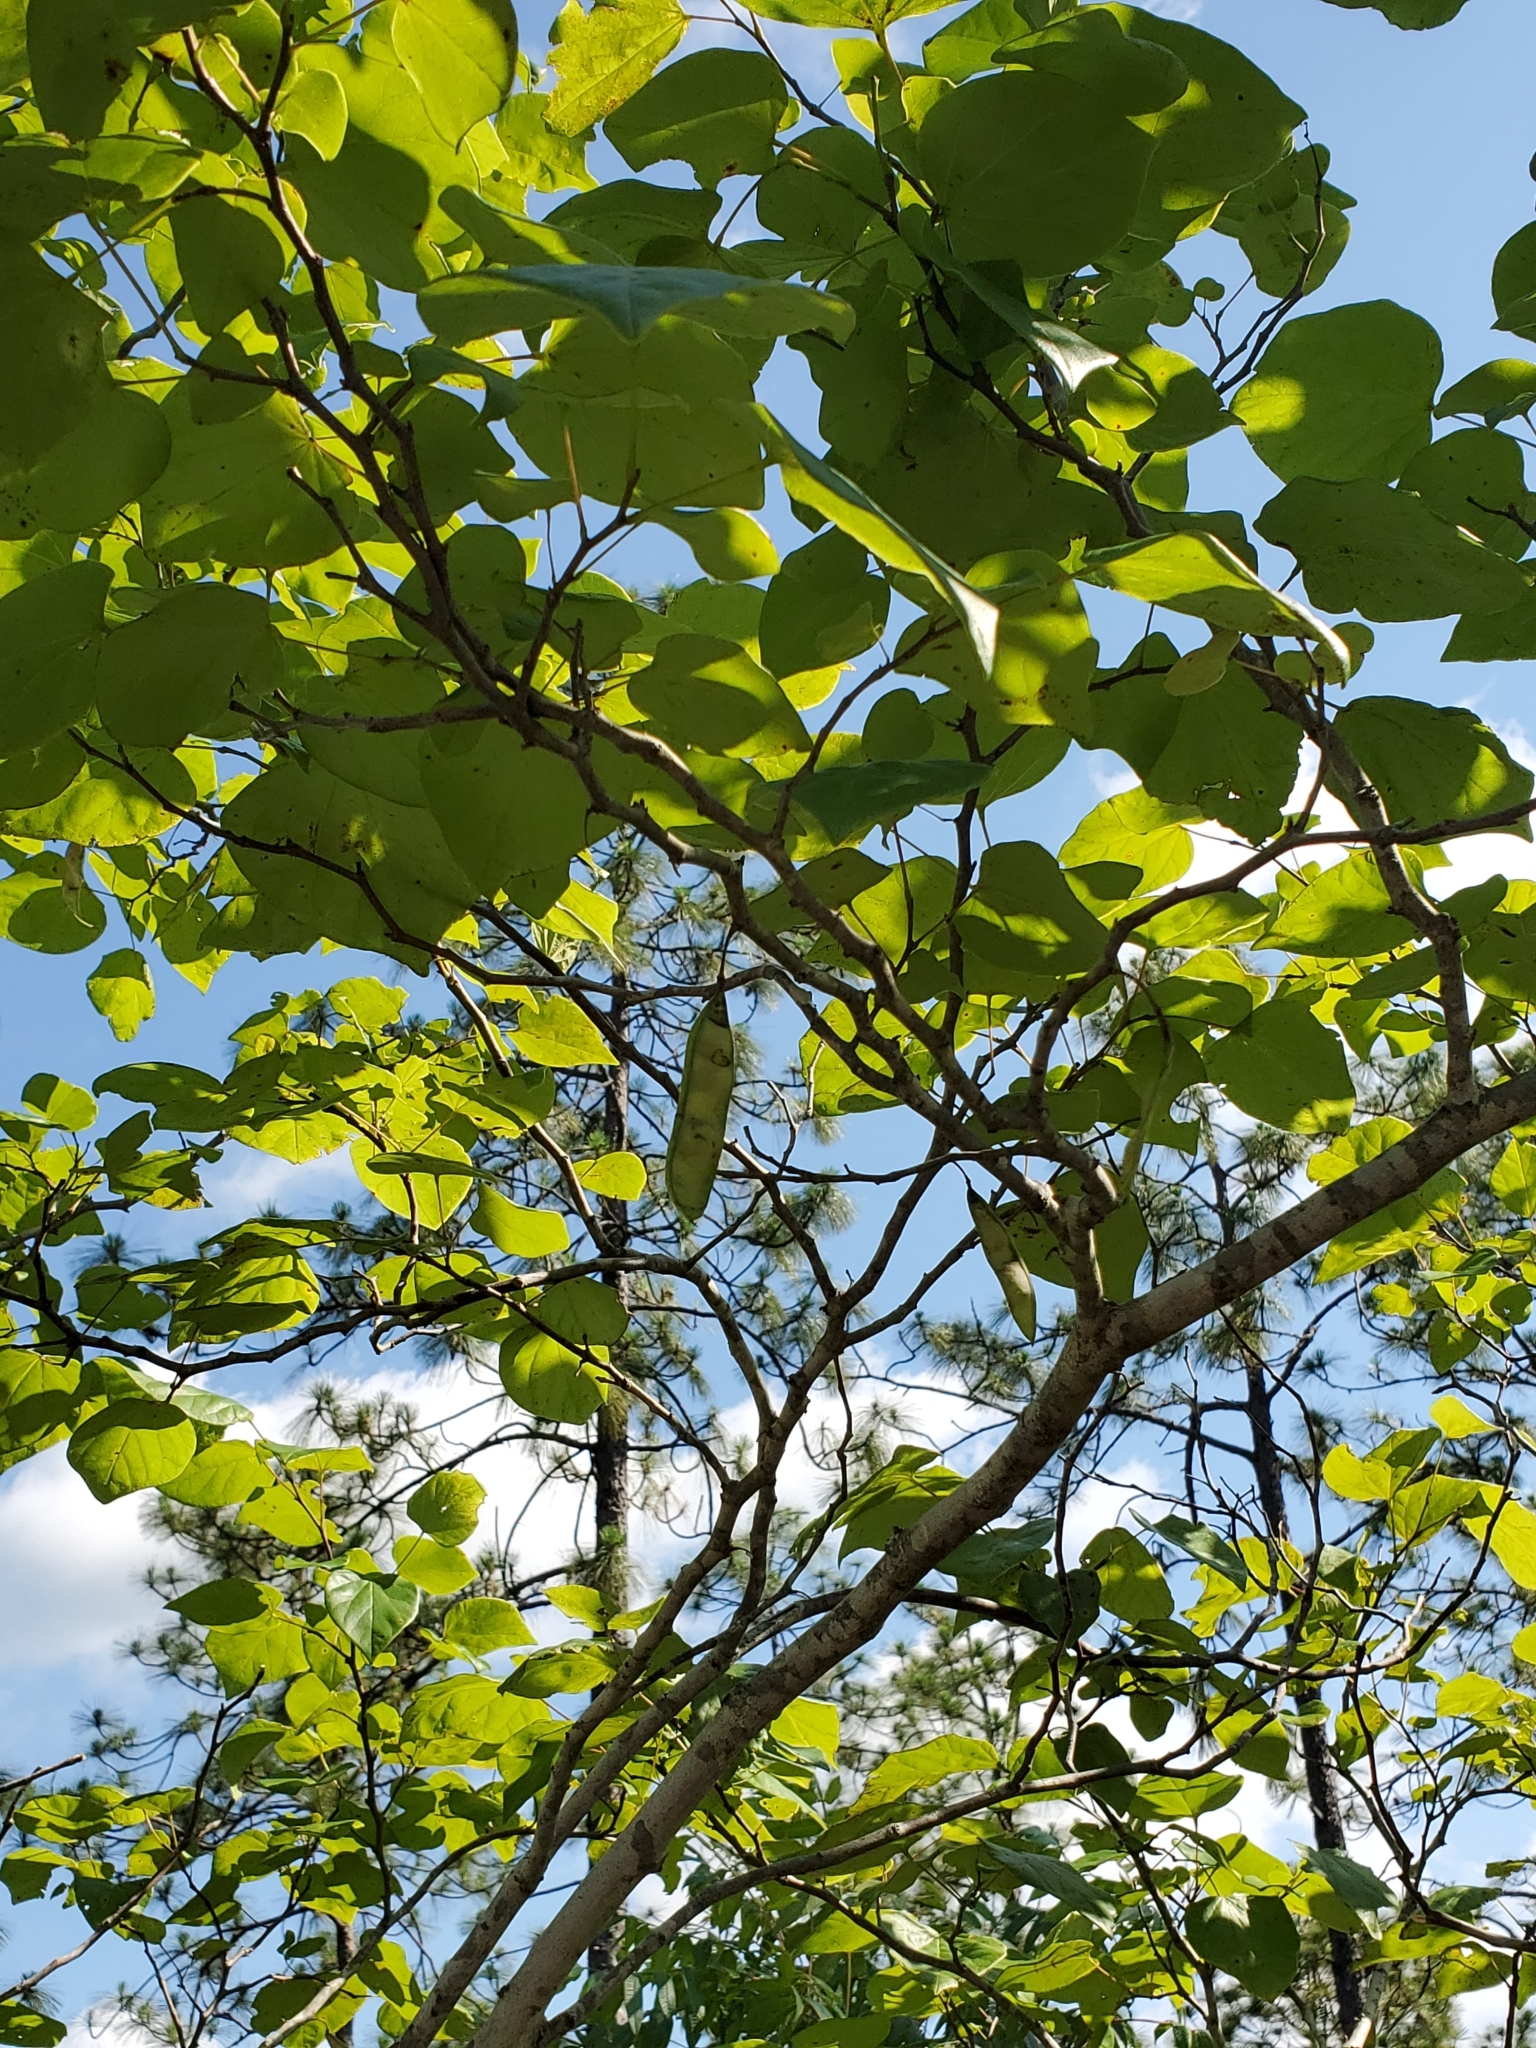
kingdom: Plantae
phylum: Tracheophyta
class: Magnoliopsida
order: Fabales
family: Fabaceae
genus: Cercis
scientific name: Cercis canadensis
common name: Eastern redbud
